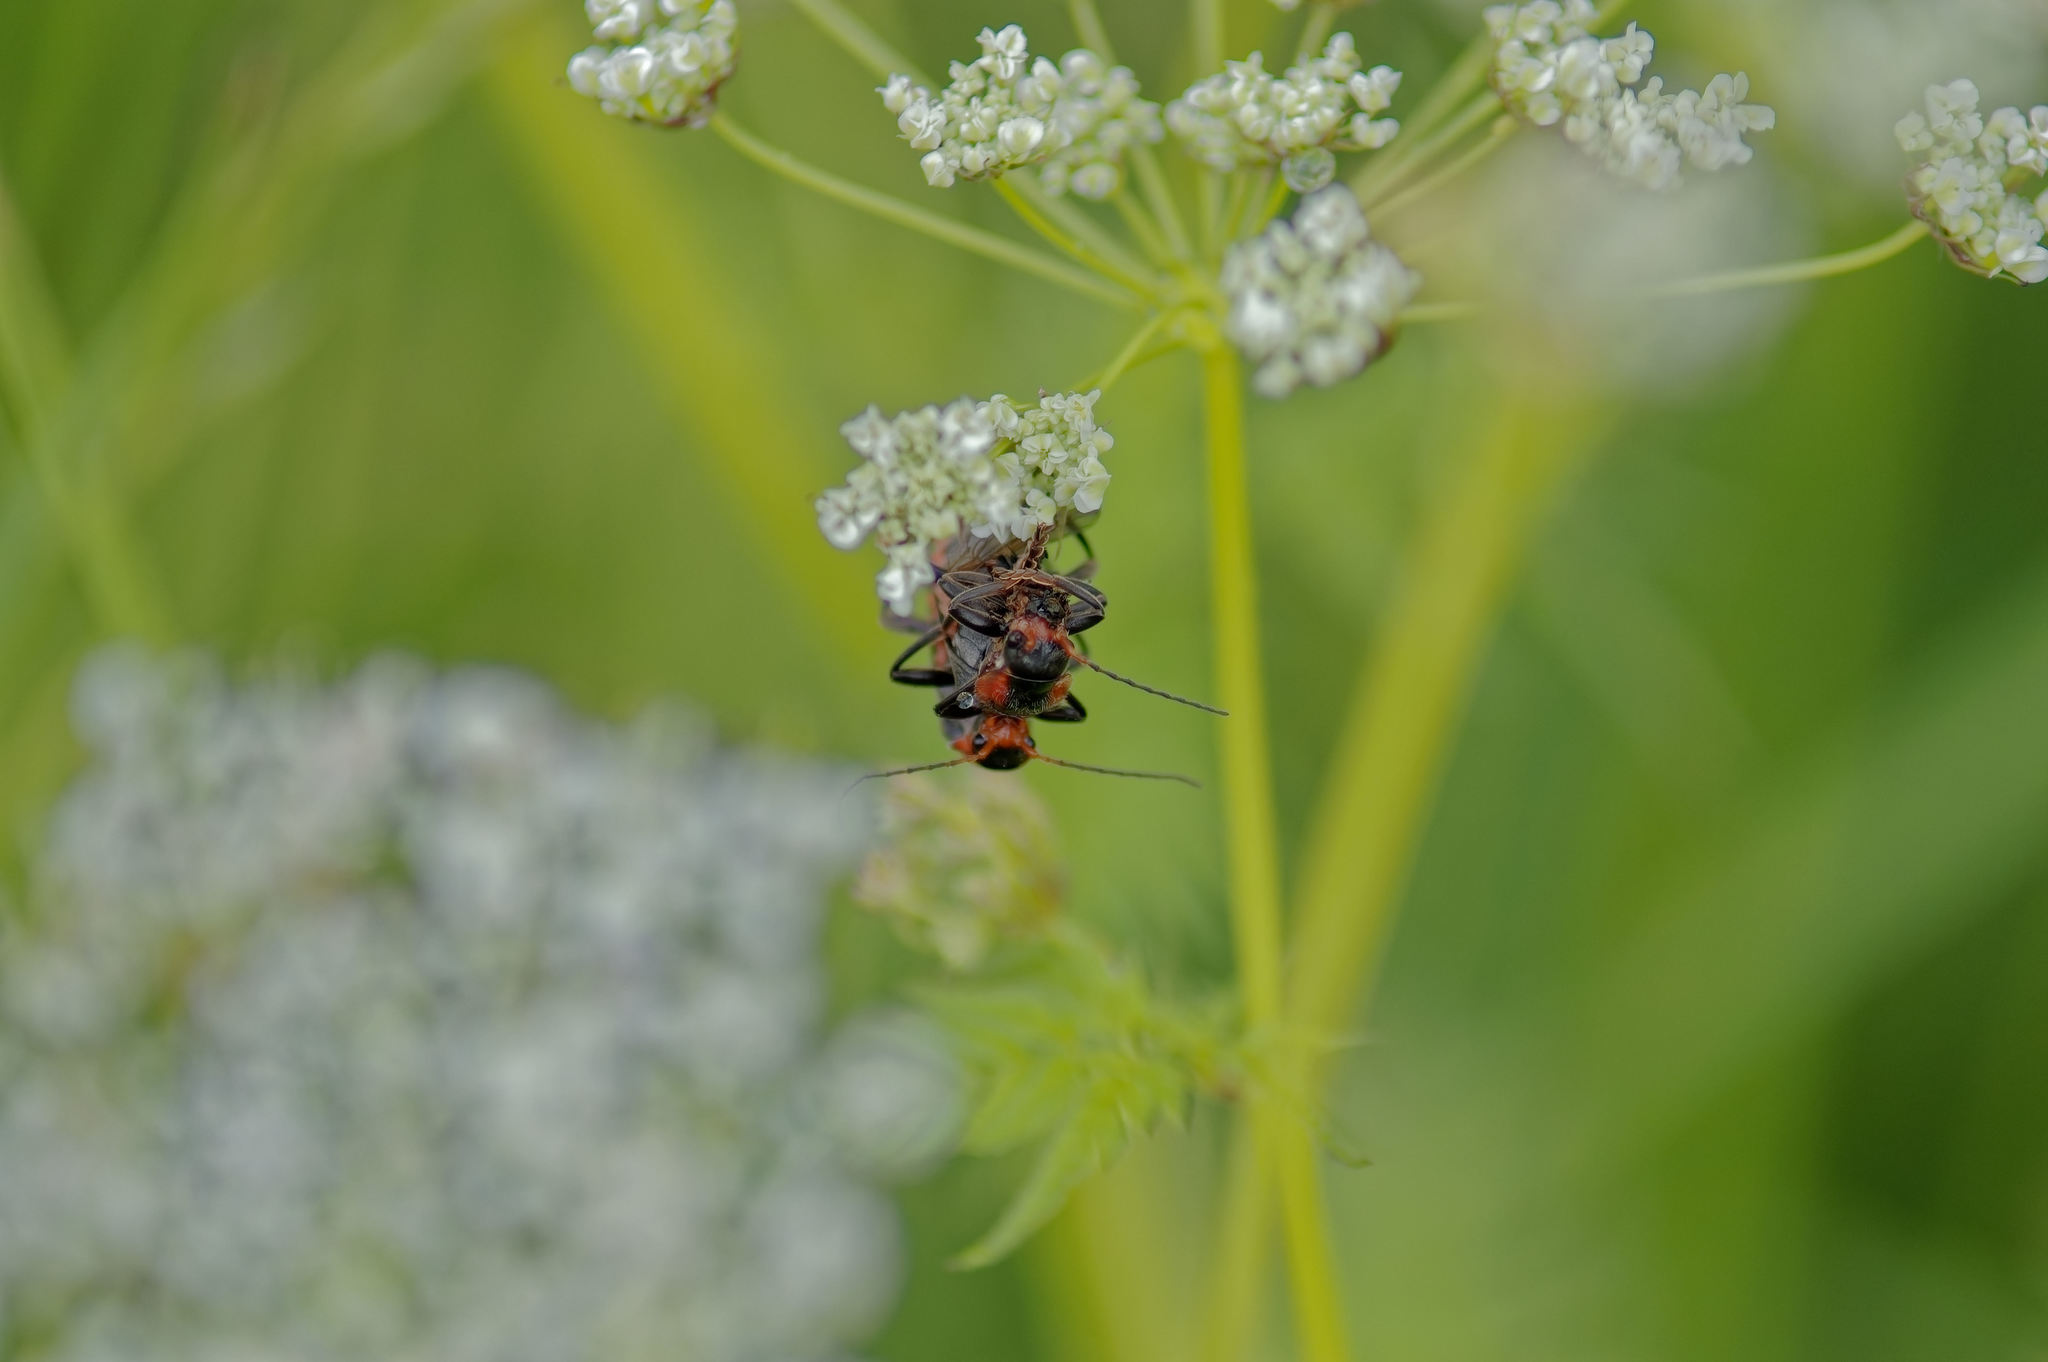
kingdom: Animalia
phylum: Arthropoda
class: Insecta
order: Coleoptera
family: Cantharidae
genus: Cantharis
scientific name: Cantharis fusca
